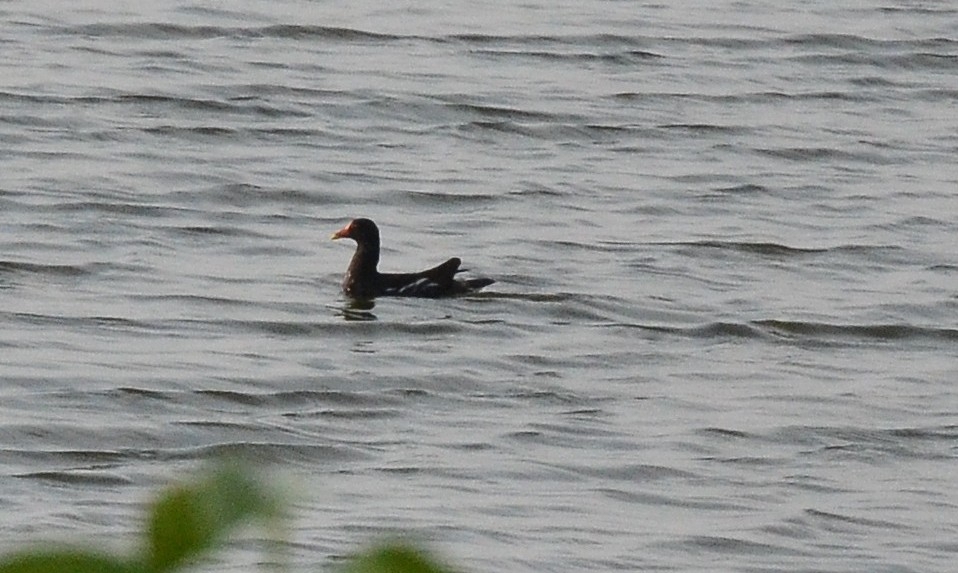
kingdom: Animalia
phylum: Chordata
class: Aves
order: Gruiformes
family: Rallidae
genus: Gallinula
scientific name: Gallinula chloropus
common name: Common moorhen
